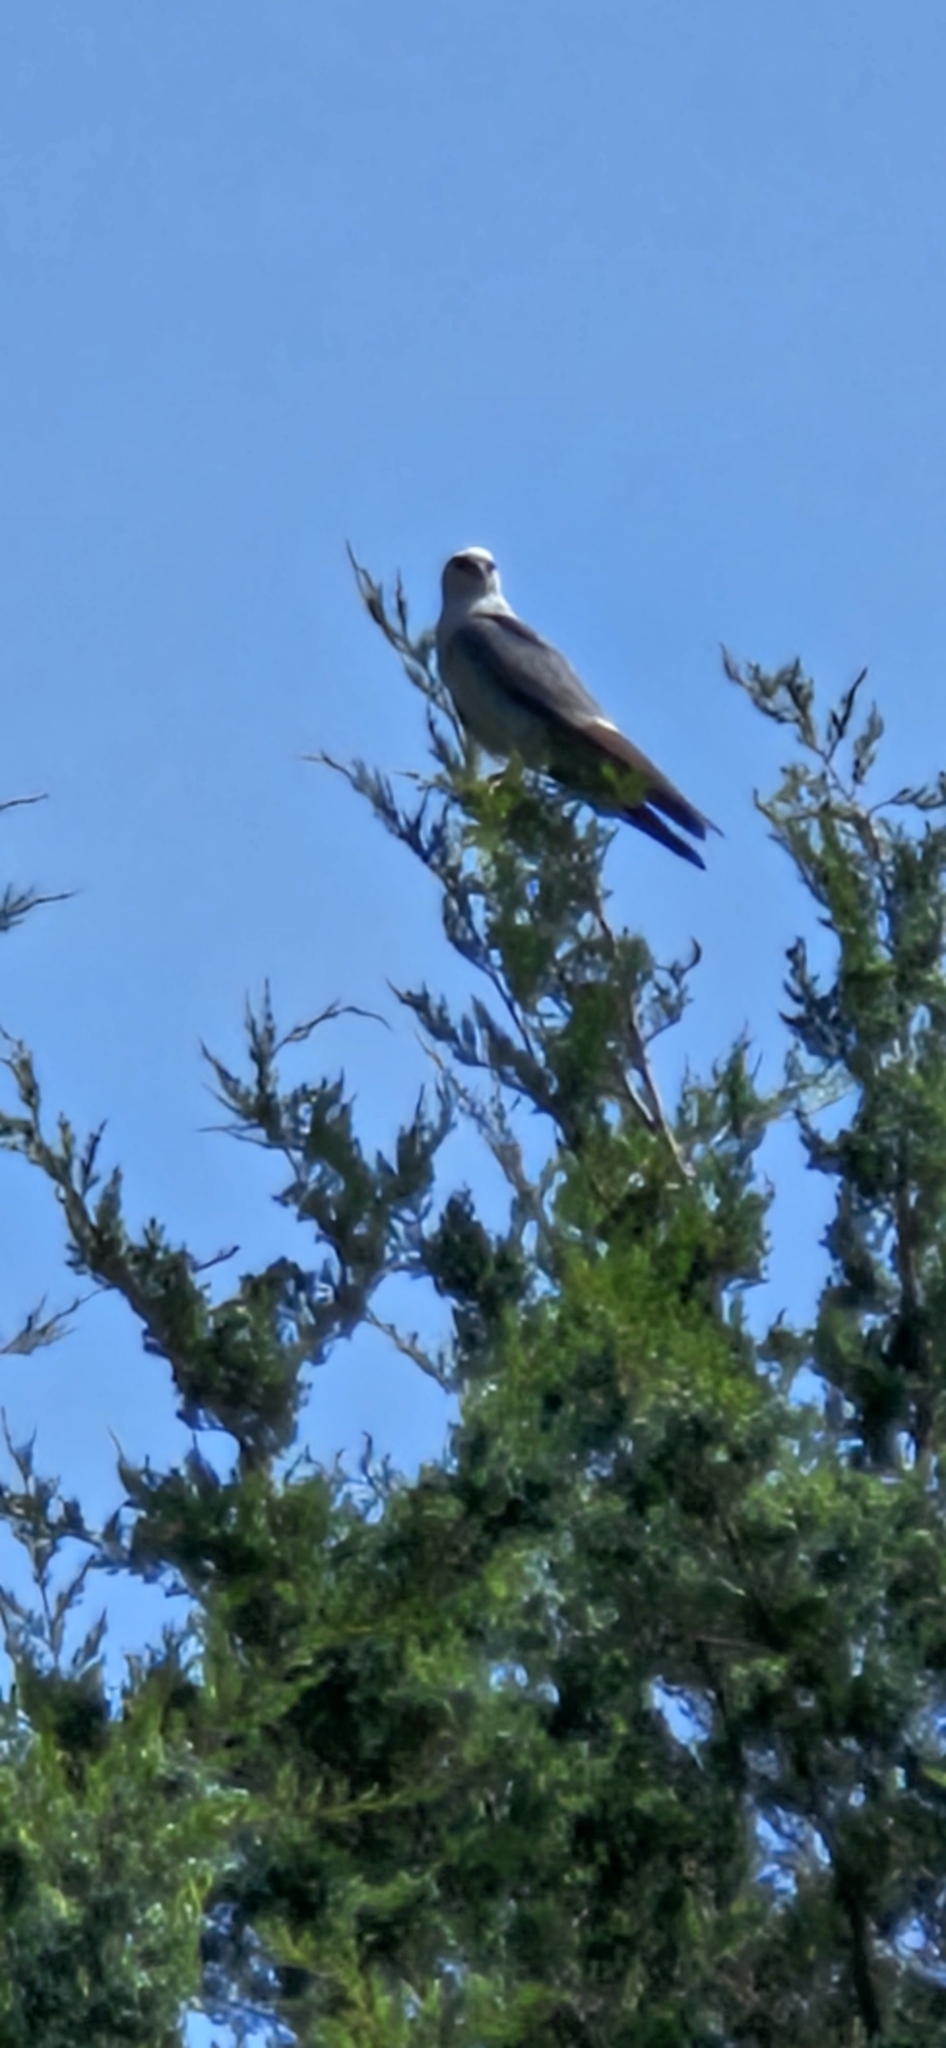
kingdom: Animalia
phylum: Chordata
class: Aves
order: Accipitriformes
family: Accipitridae
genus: Ictinia
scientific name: Ictinia mississippiensis
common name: Mississippi kite
